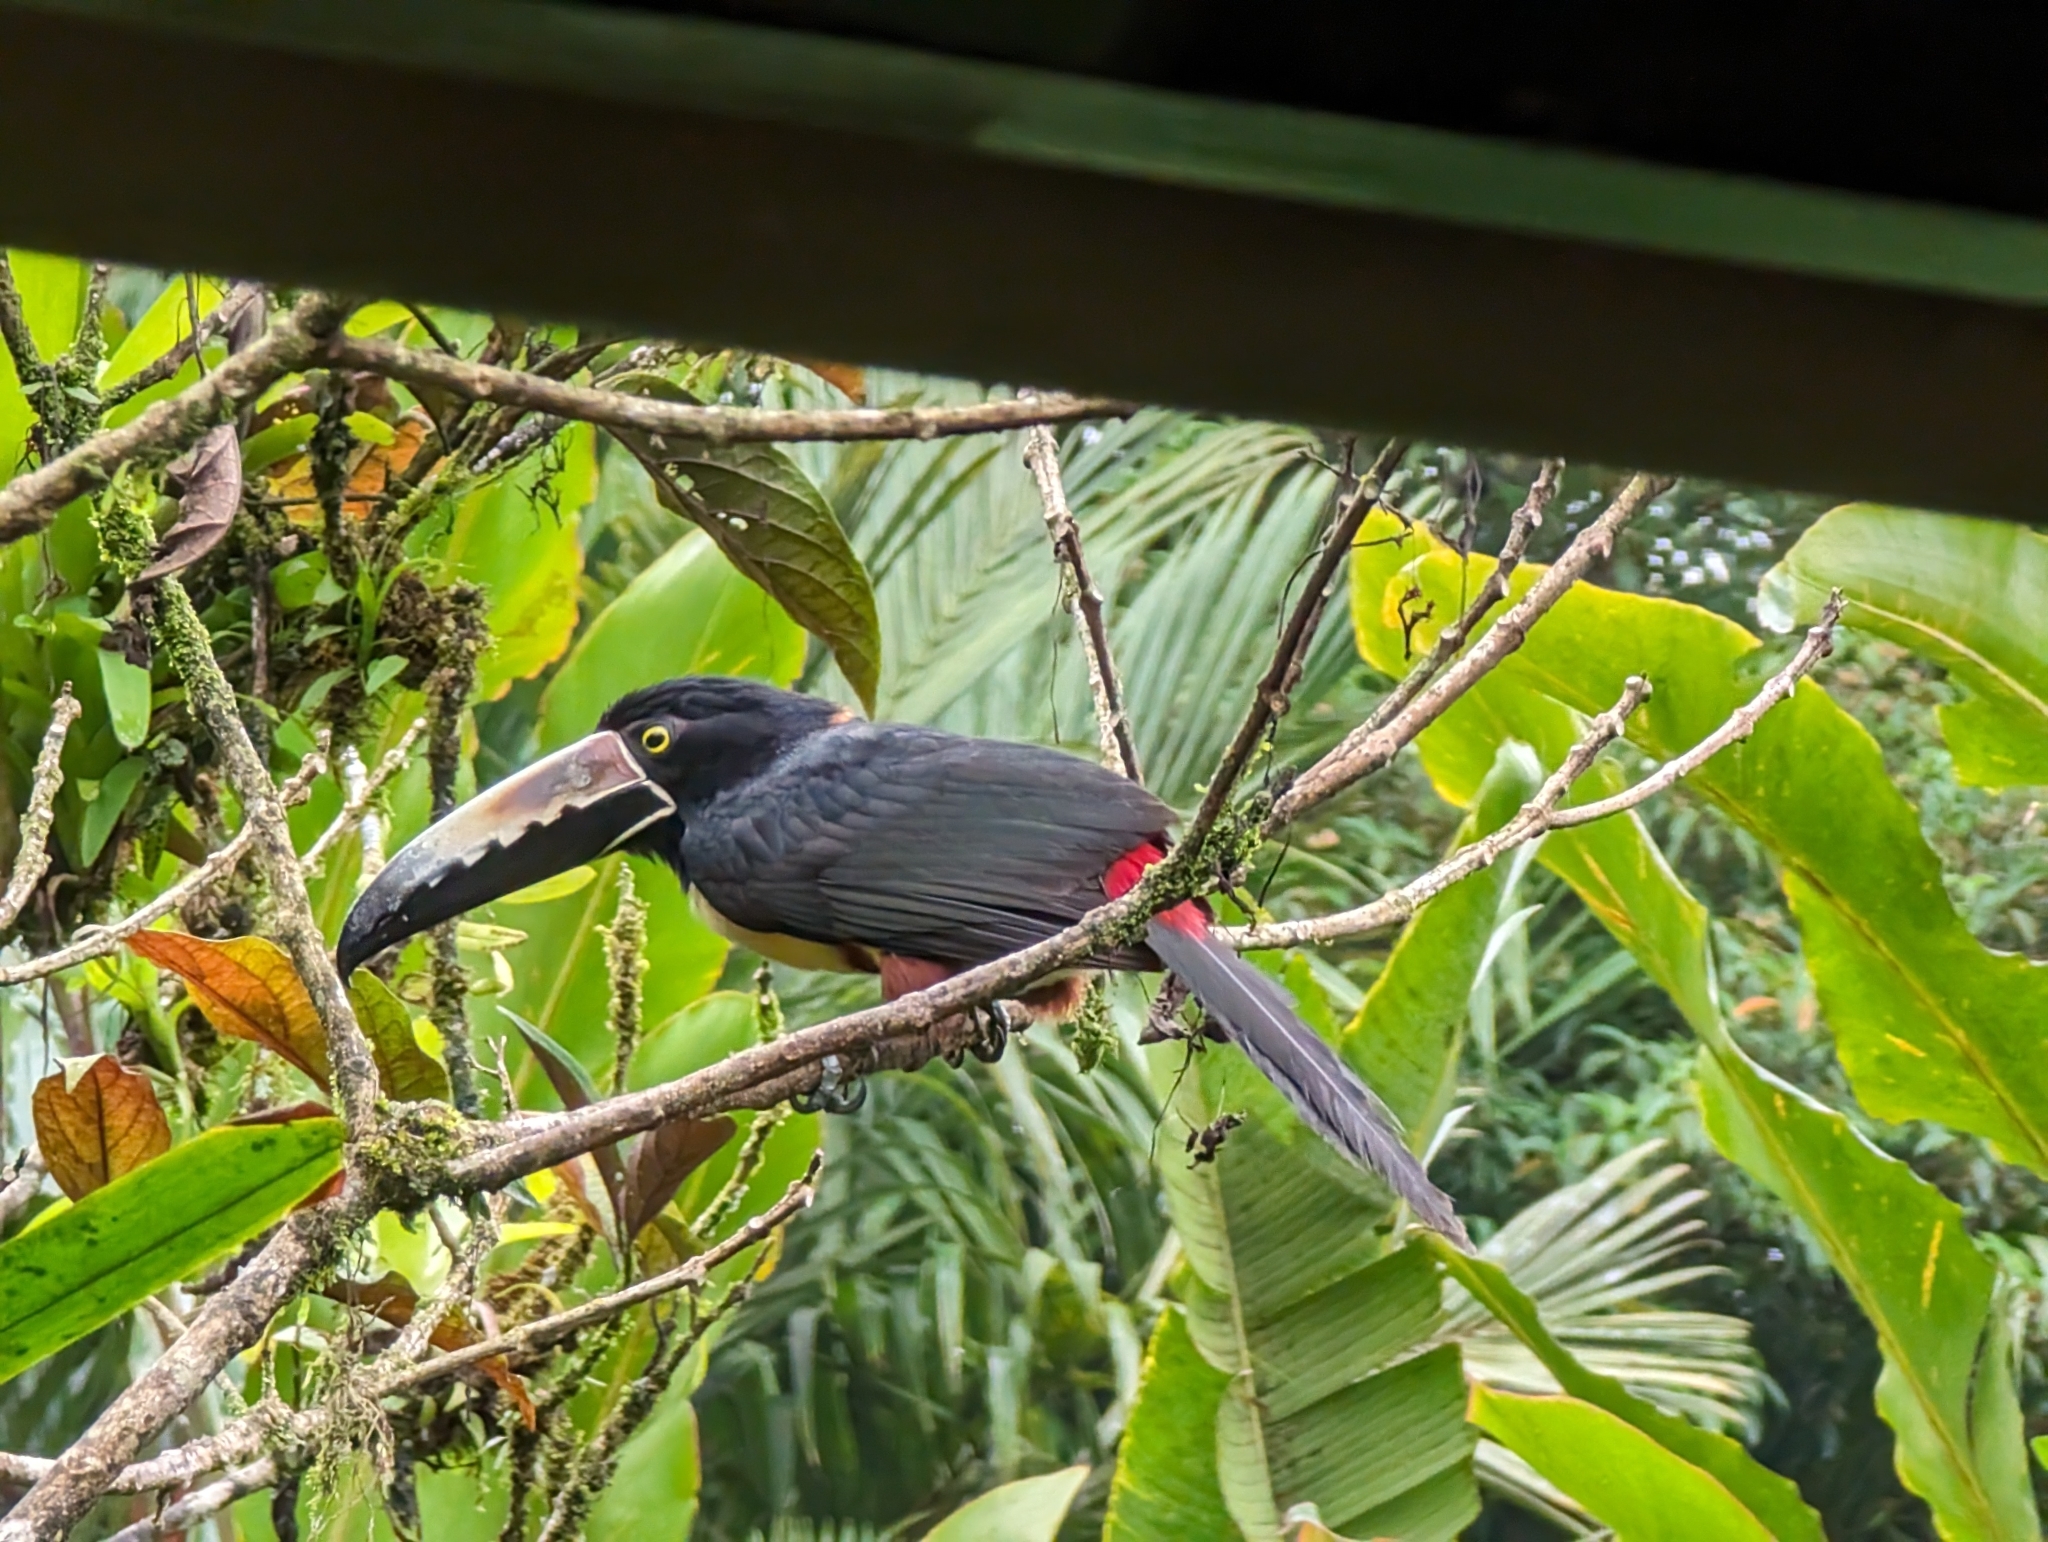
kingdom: Animalia
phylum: Chordata
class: Aves
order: Piciformes
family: Ramphastidae
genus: Pteroglossus
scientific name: Pteroglossus torquatus
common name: Collared aracari
